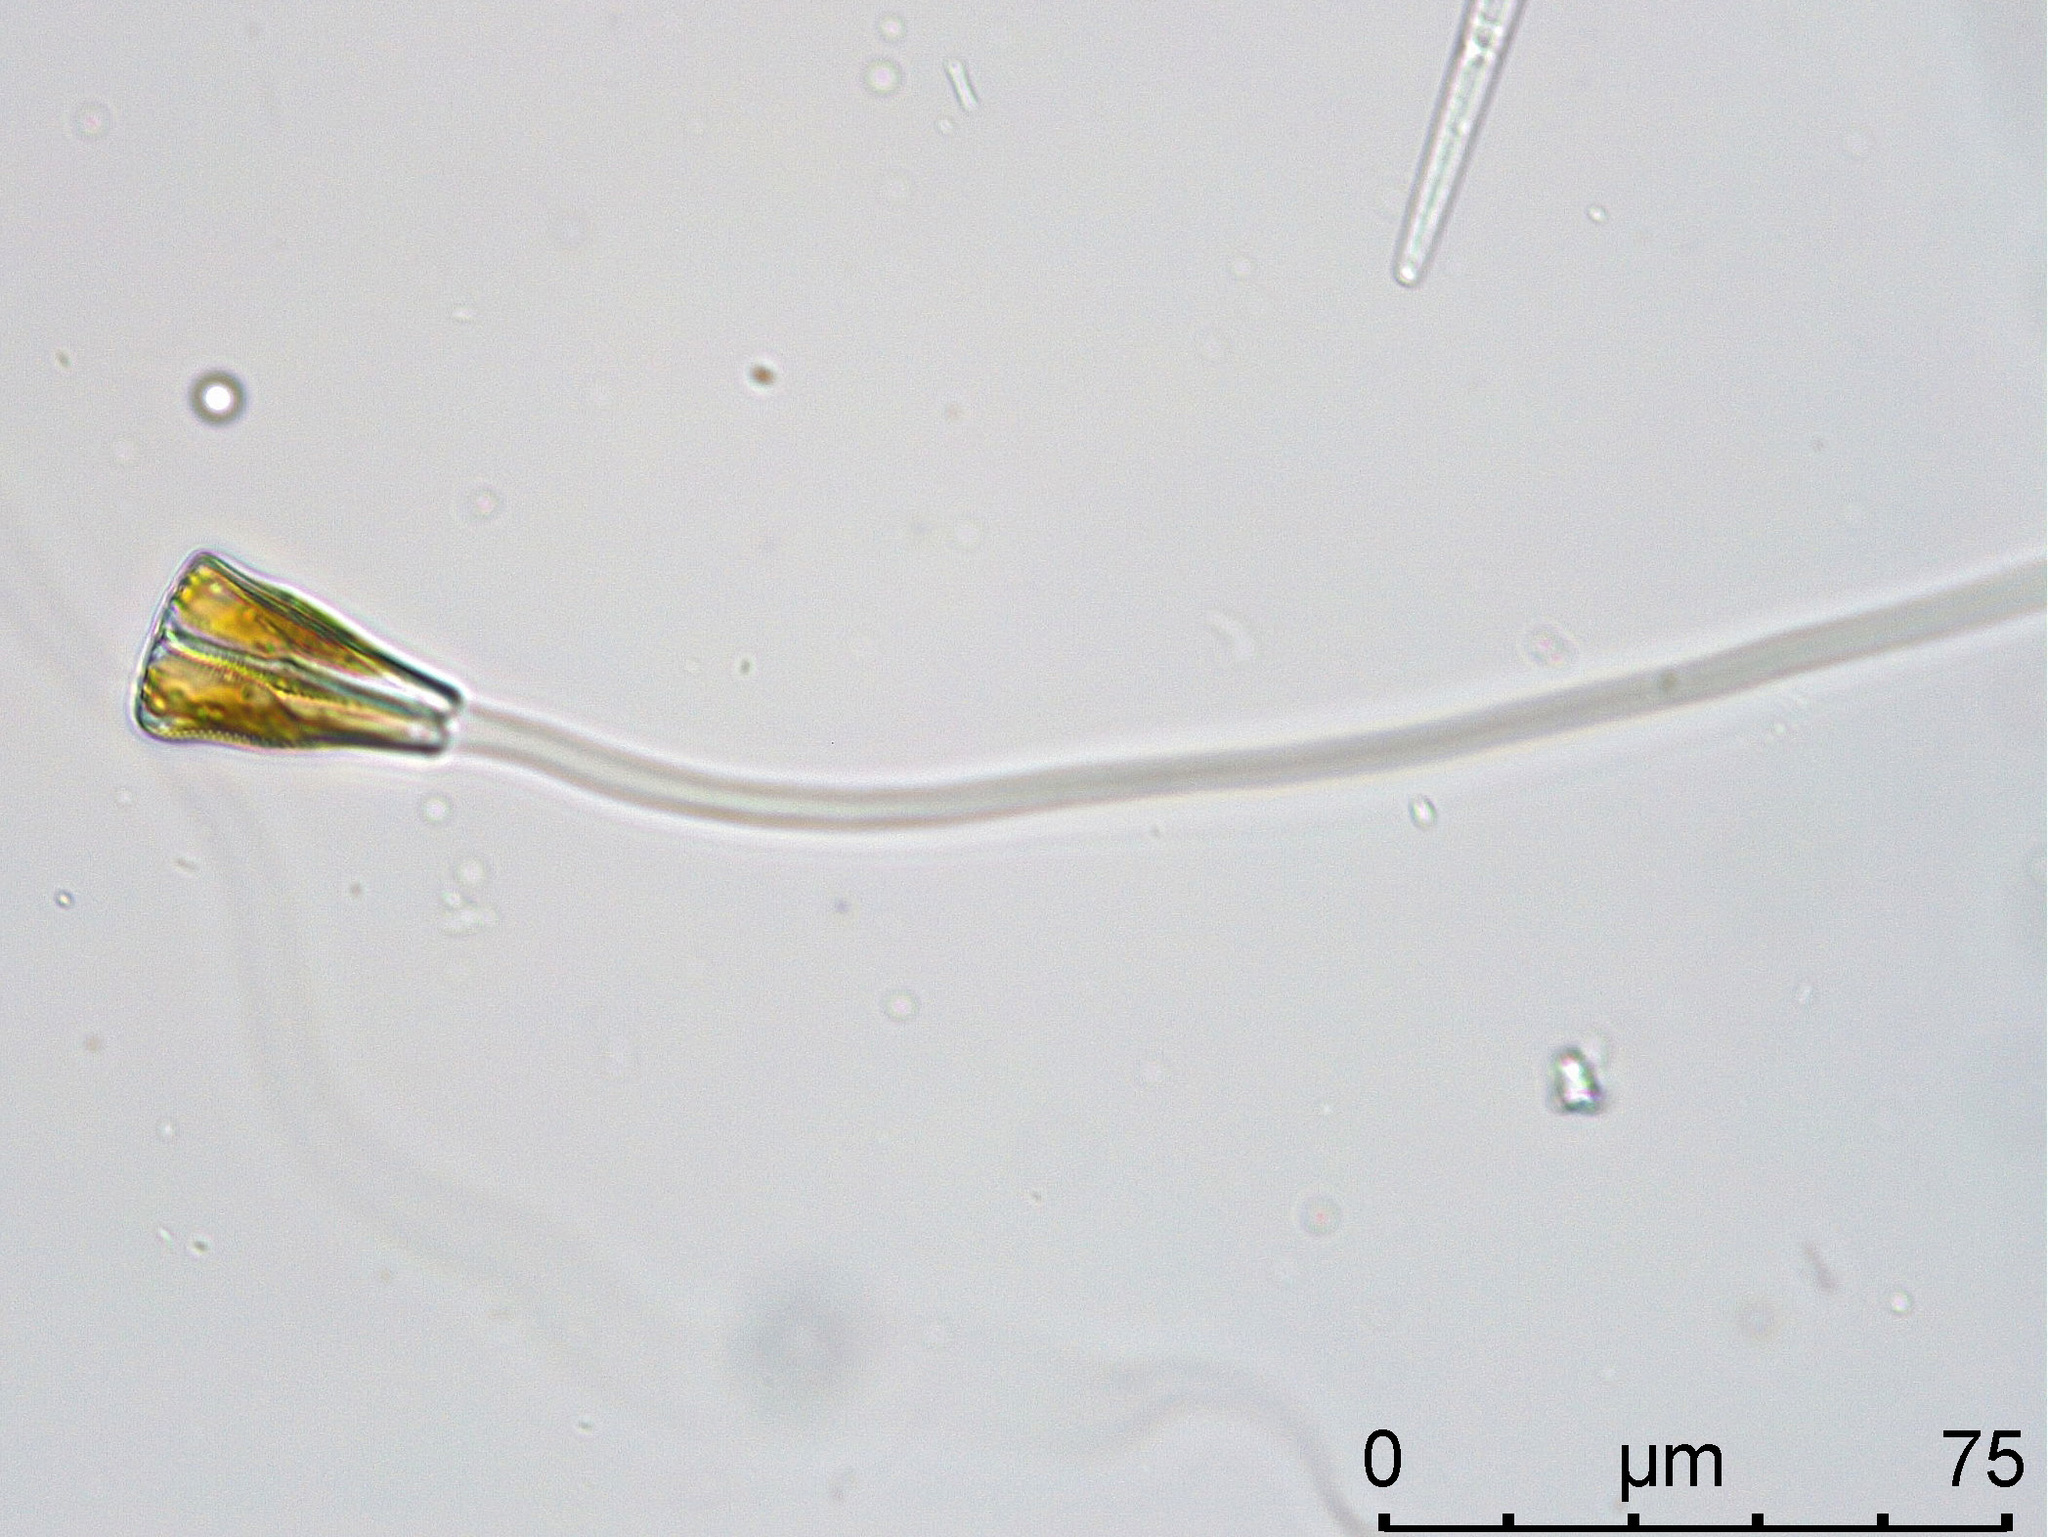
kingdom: Chromista
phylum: Ochrophyta
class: Bacillariophyceae
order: Cymbellales
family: Gomphonemataceae
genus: Gomphonema
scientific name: Gomphonema
